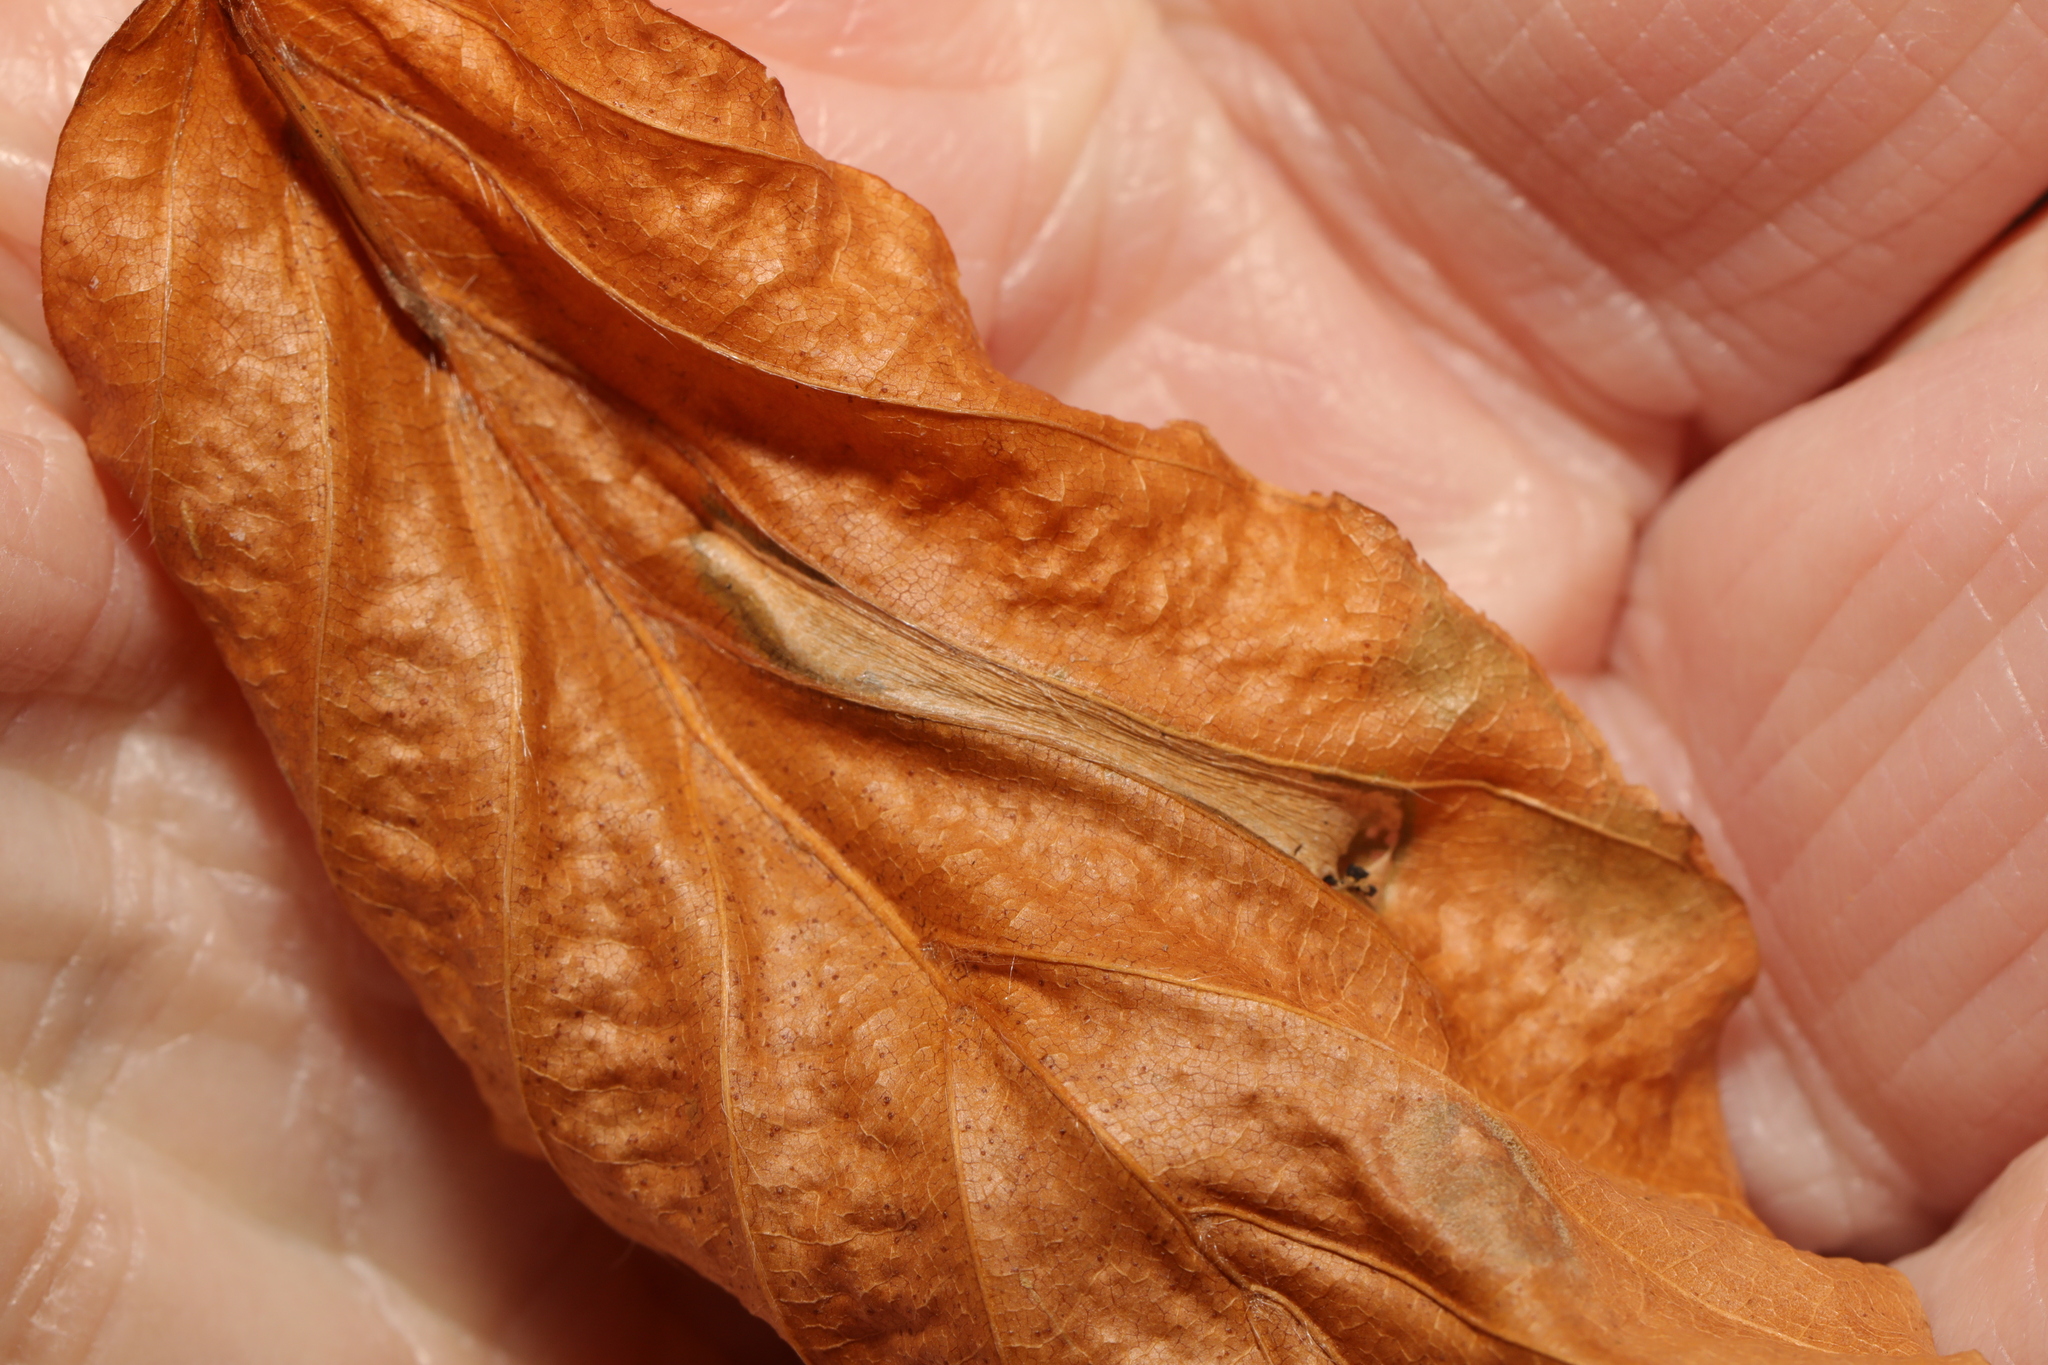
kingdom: Animalia
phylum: Arthropoda
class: Insecta
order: Lepidoptera
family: Gracillariidae
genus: Phyllonorycter
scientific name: Phyllonorycter maestingella
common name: Beech midget
